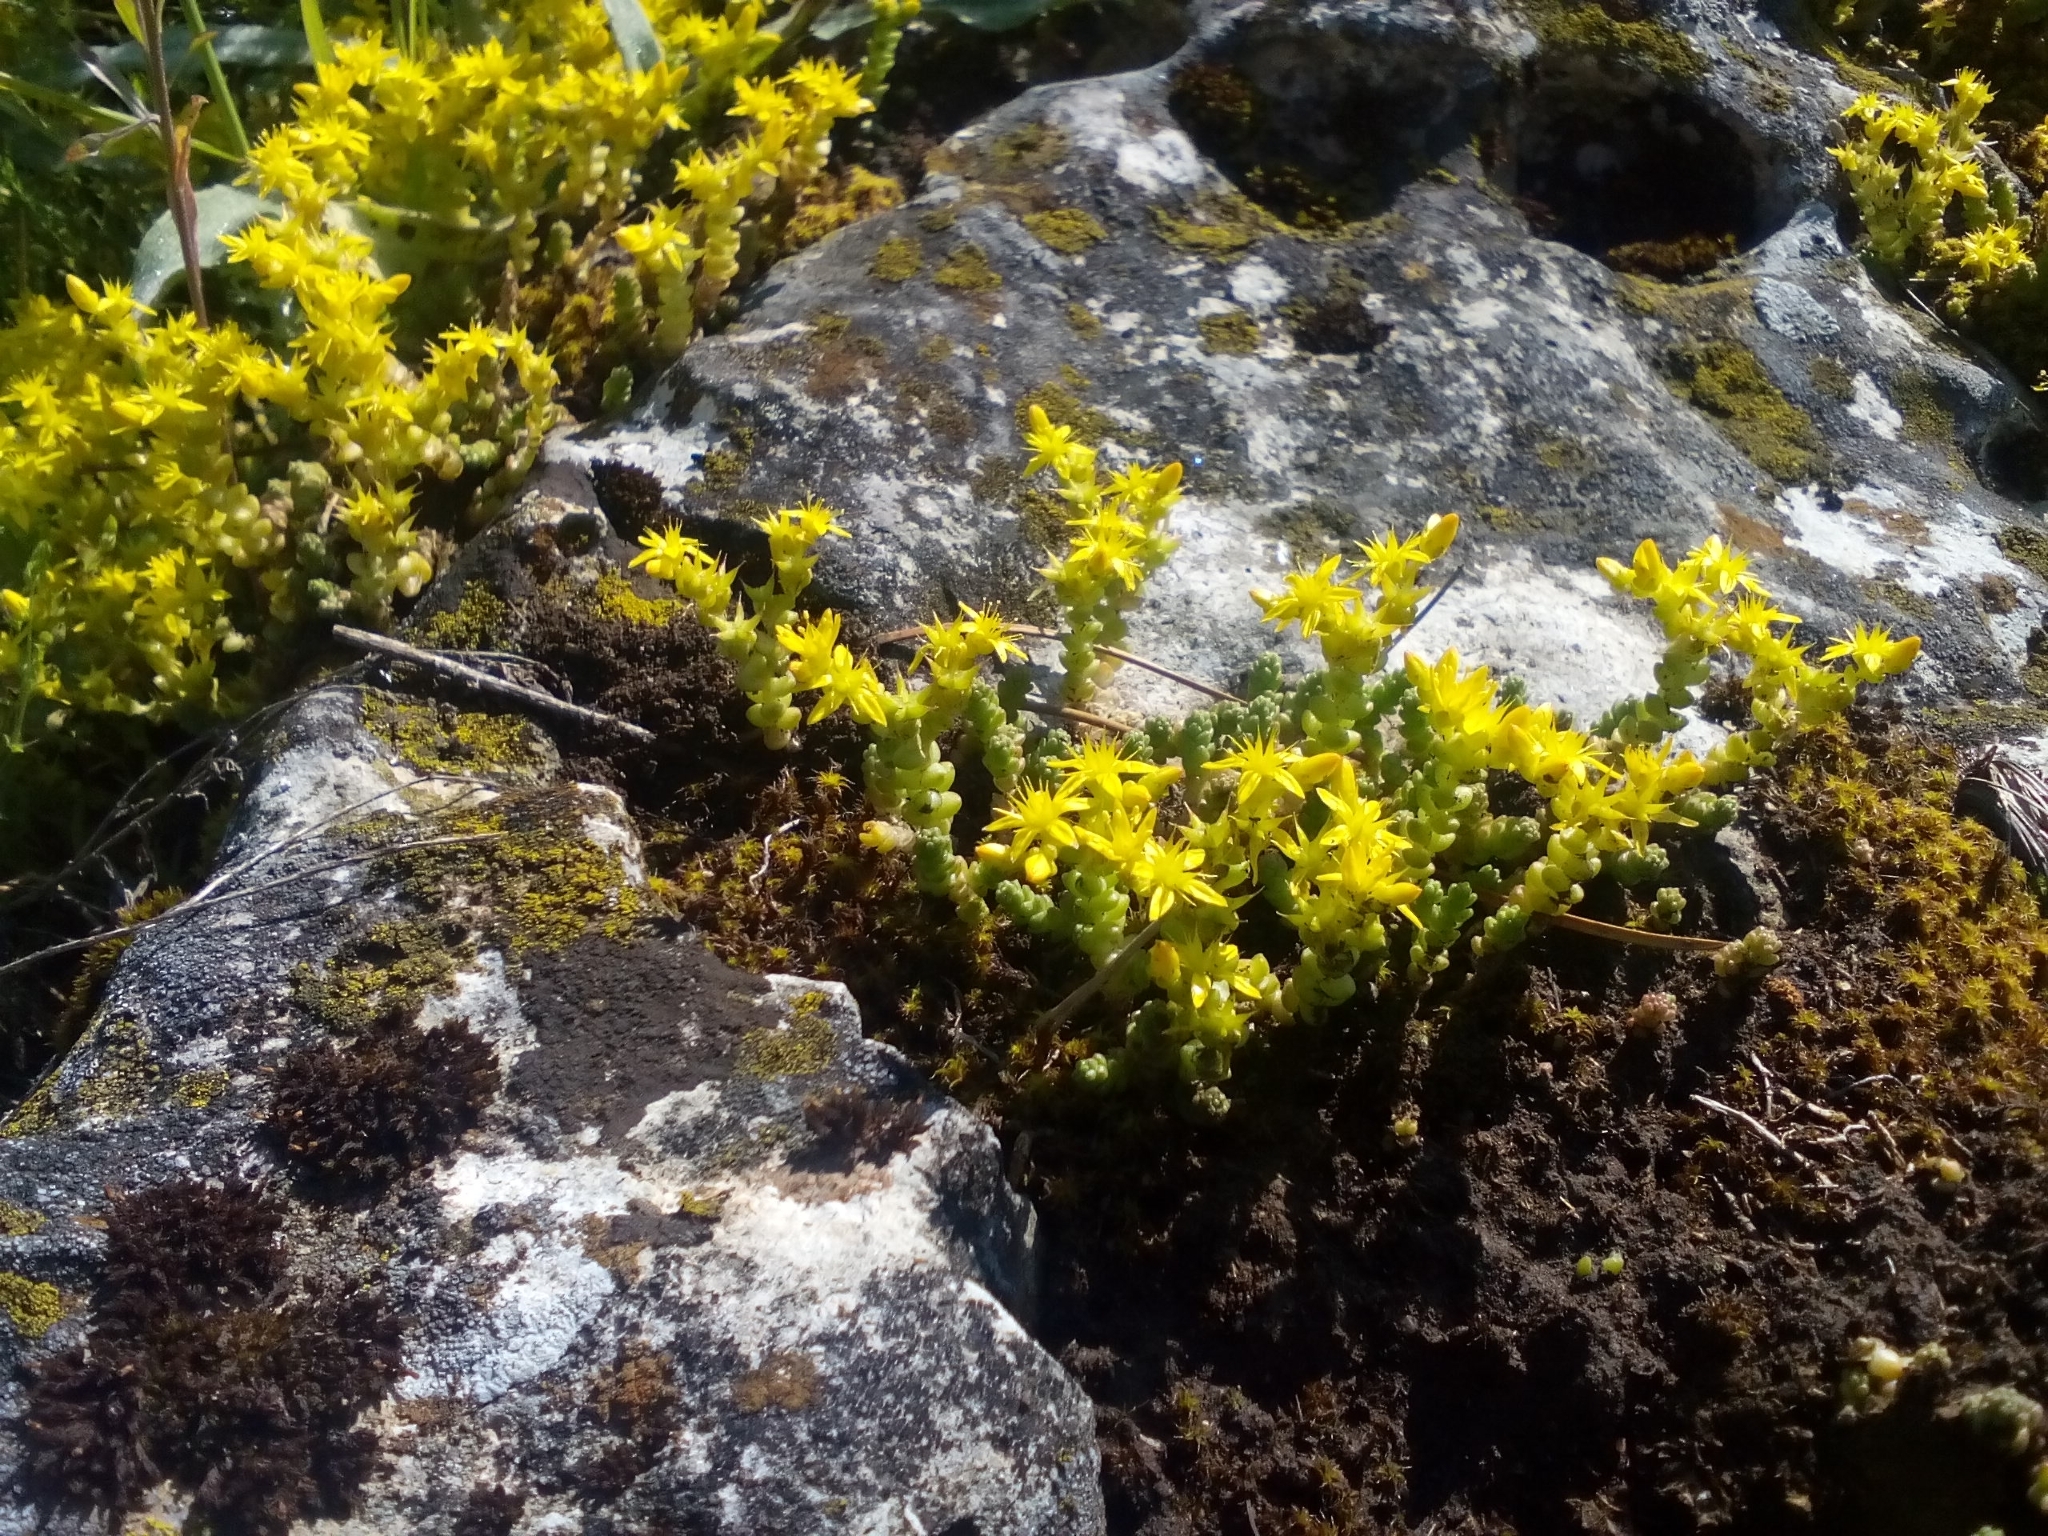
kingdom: Plantae
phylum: Tracheophyta
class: Magnoliopsida
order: Saxifragales
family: Crassulaceae
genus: Sedum
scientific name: Sedum acre
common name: Biting stonecrop
